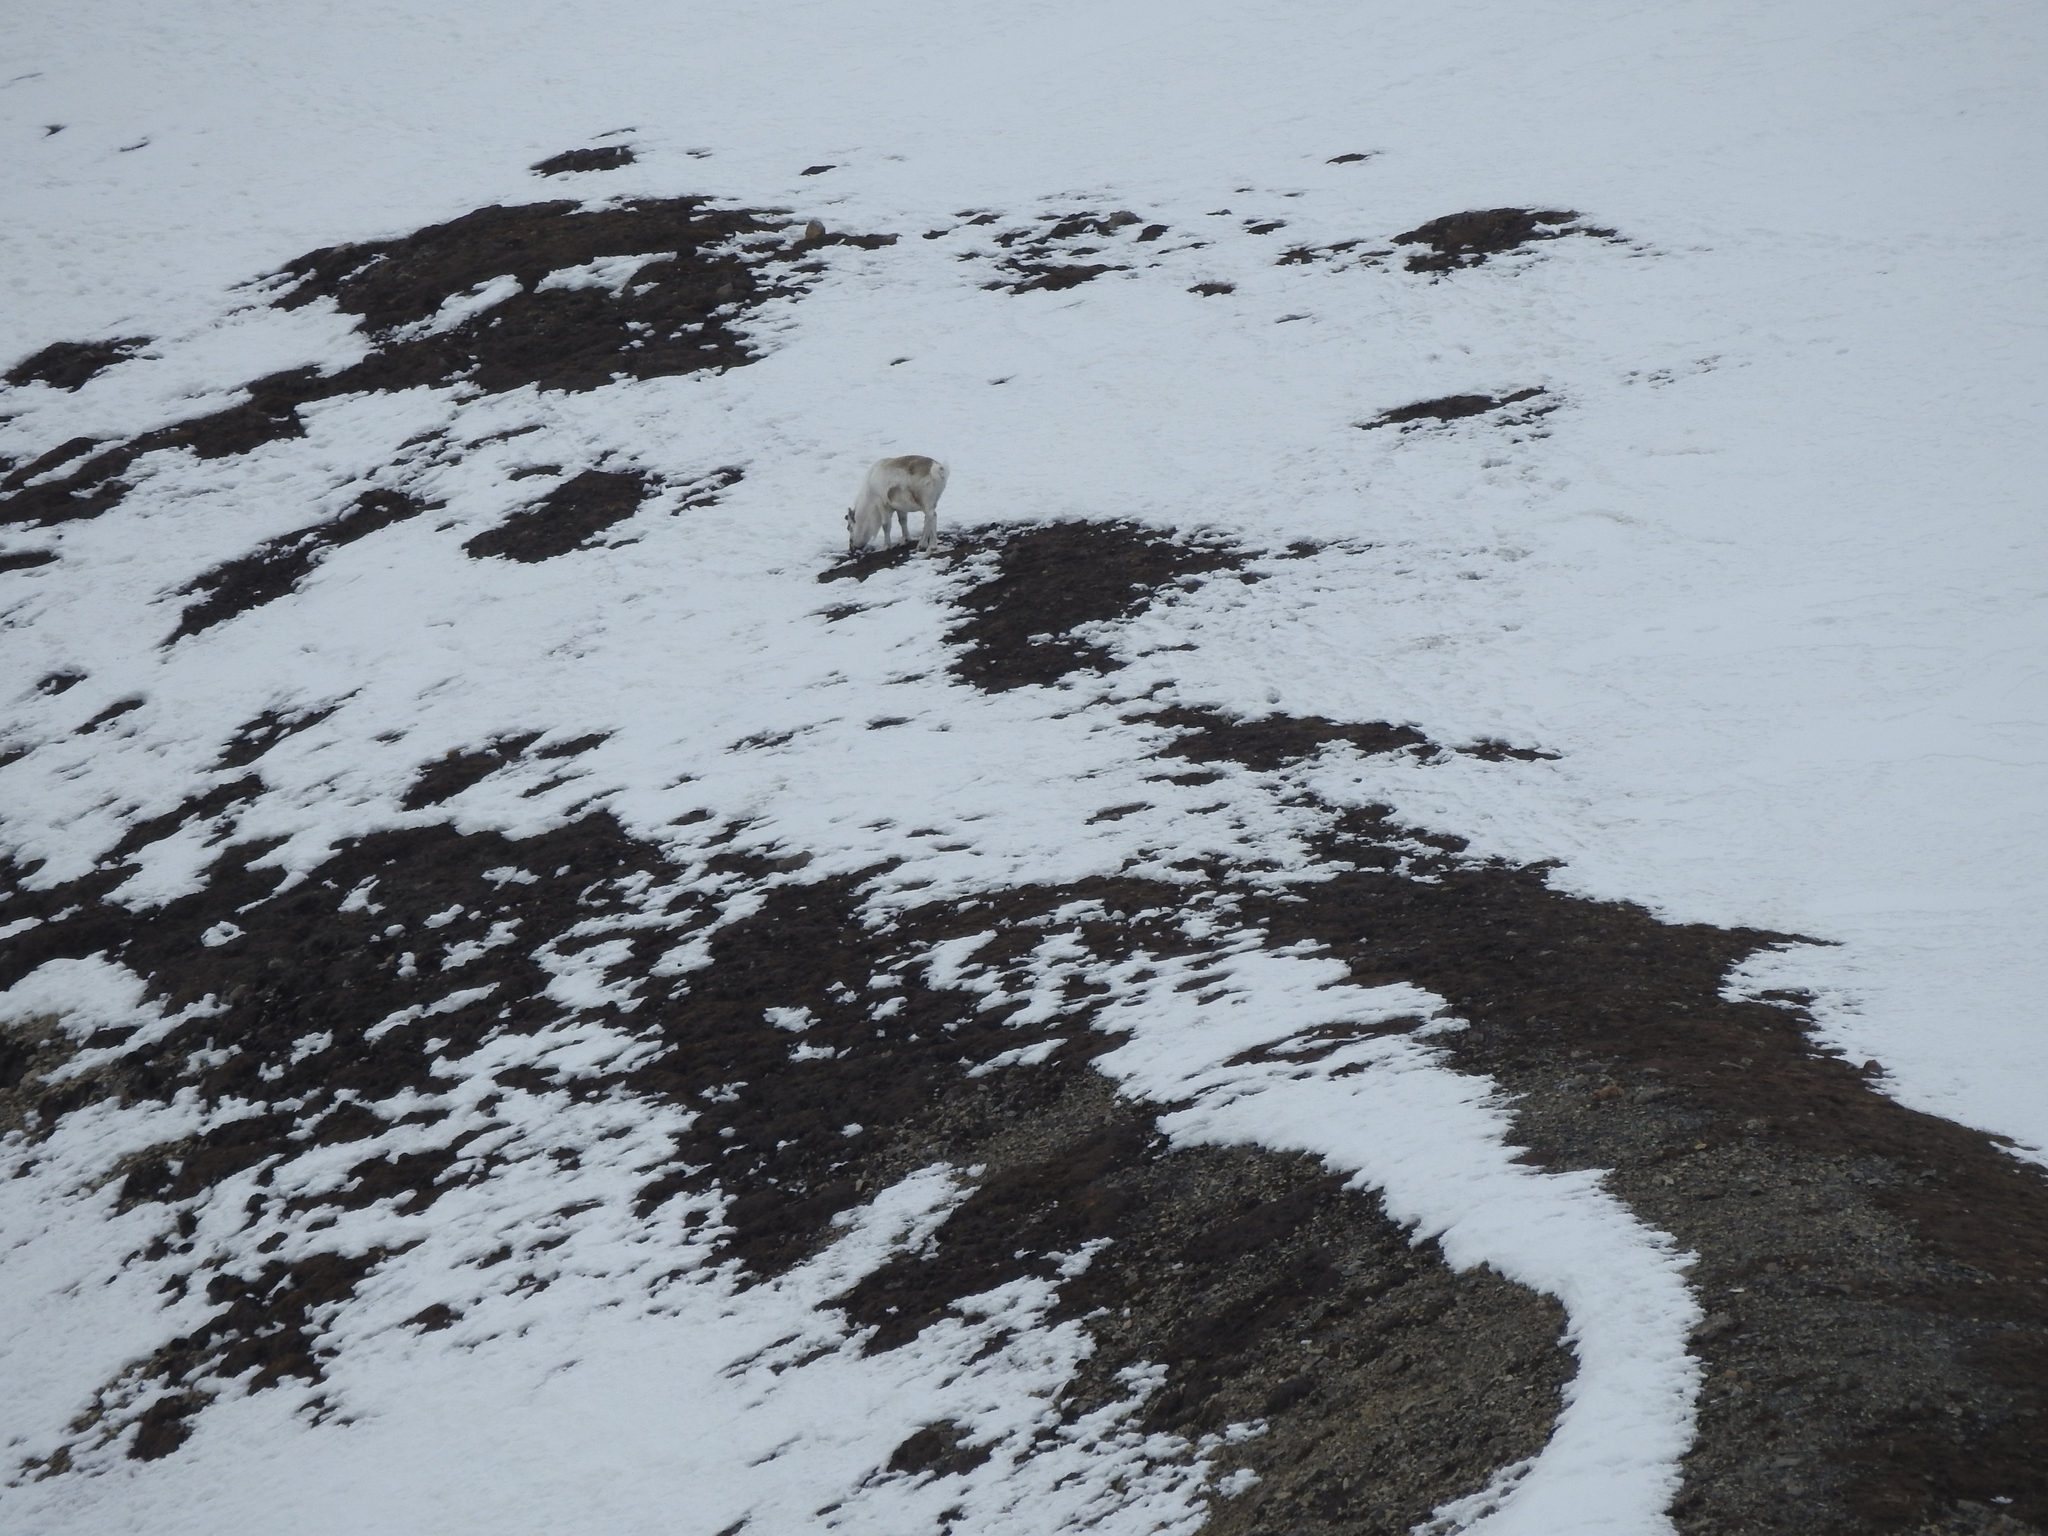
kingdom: Animalia
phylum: Chordata
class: Mammalia
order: Artiodactyla
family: Cervidae
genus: Rangifer
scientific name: Rangifer tarandus
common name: Reindeer
